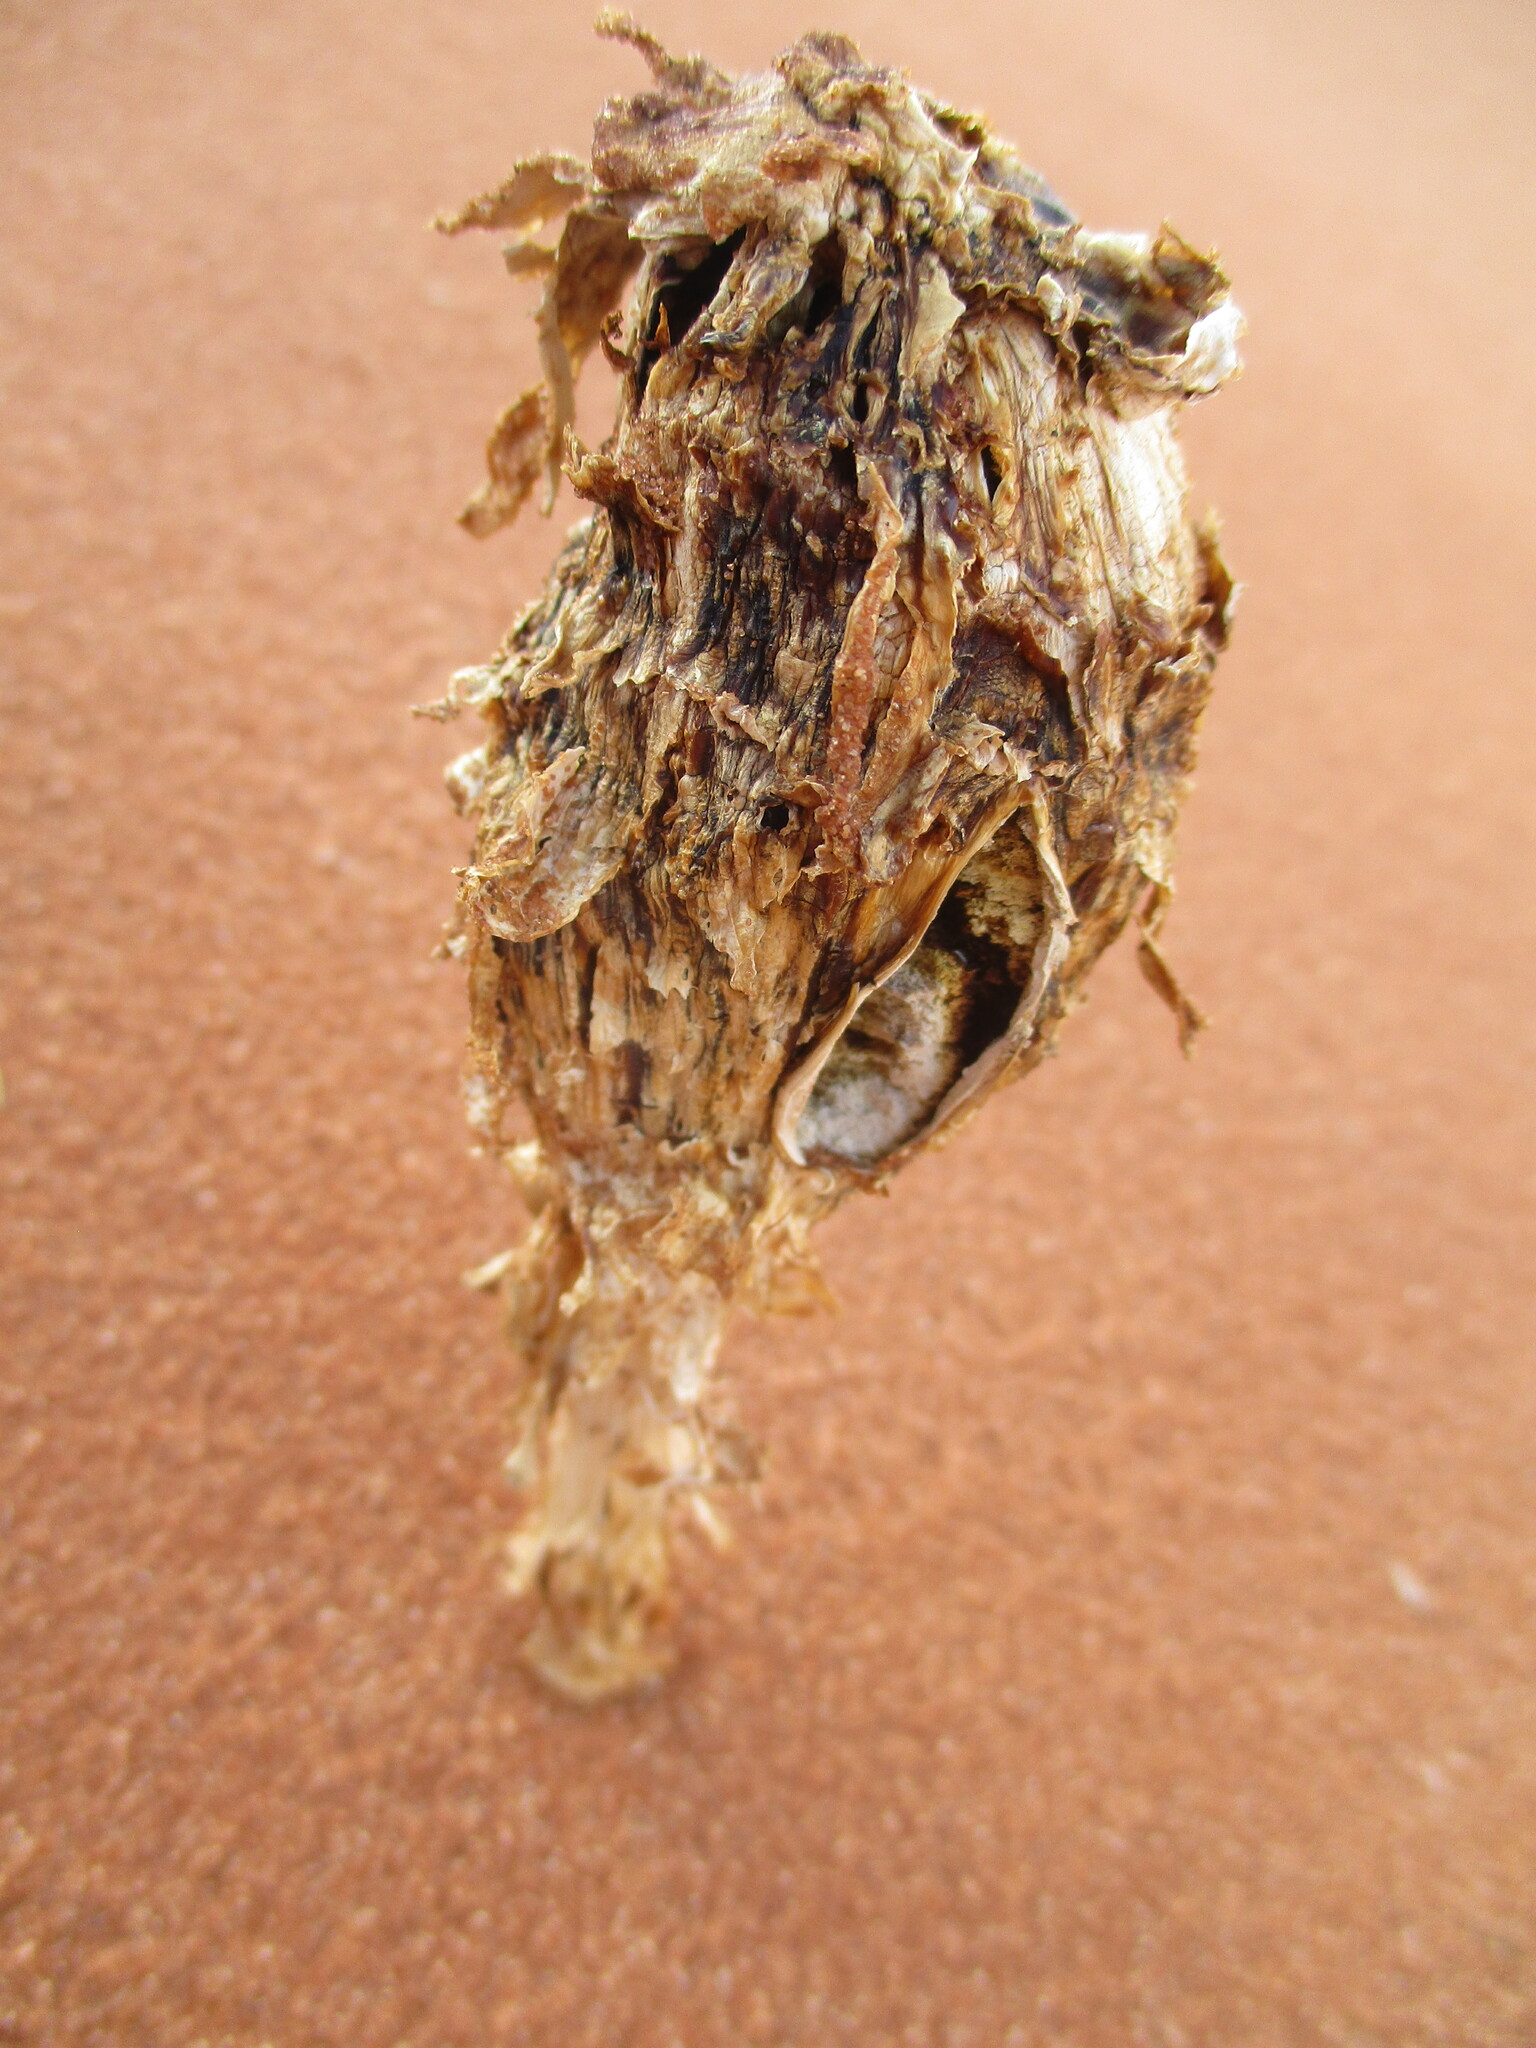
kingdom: Fungi
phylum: Basidiomycota
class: Agaricomycetes
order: Agaricales
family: Agaricaceae
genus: Podaxis
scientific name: Podaxis pistillaris
